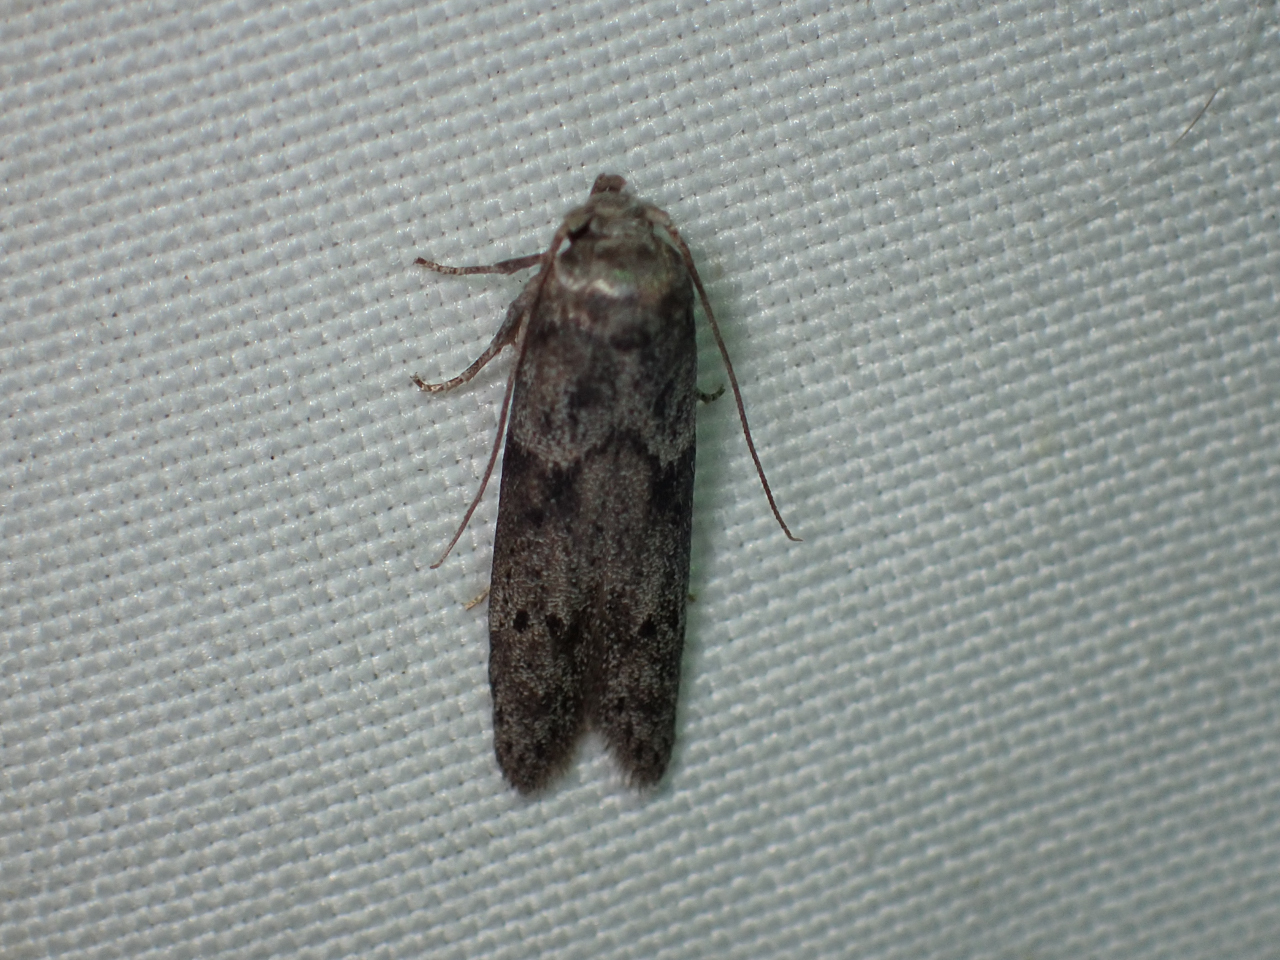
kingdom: Animalia
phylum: Arthropoda
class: Insecta
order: Lepidoptera
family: Blastobasidae
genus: Blastobasis
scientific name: Blastobasis glandulella
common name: Acorn moth
